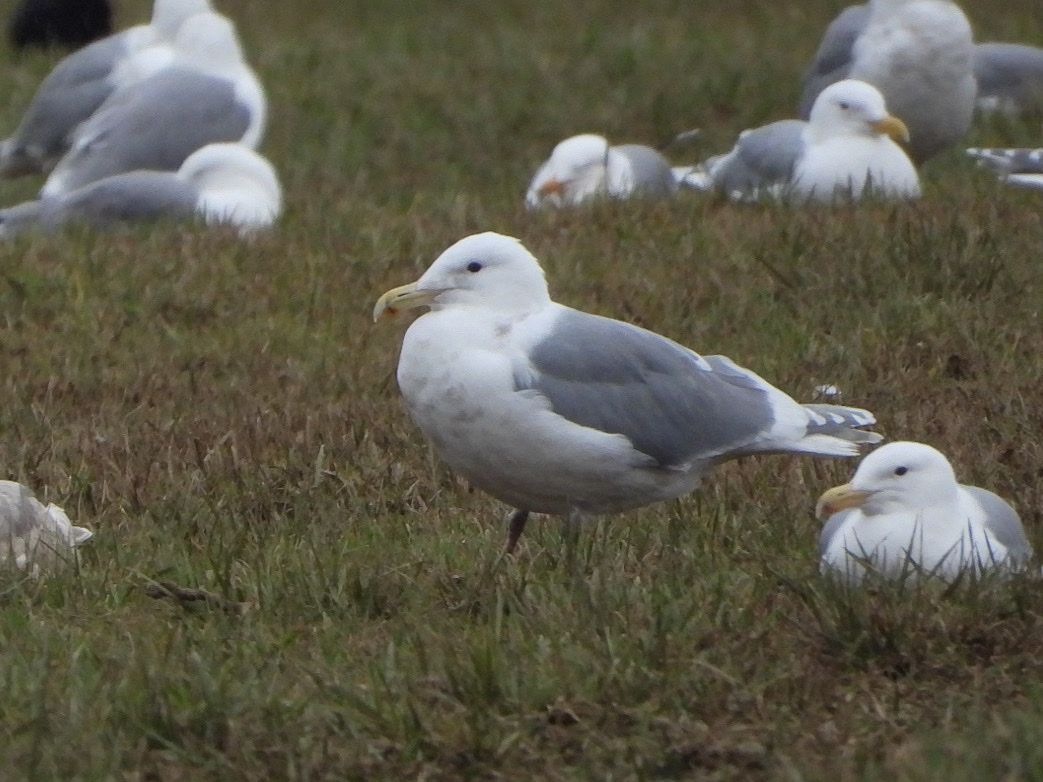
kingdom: Animalia
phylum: Chordata
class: Aves
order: Charadriiformes
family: Laridae
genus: Larus
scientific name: Larus glaucescens
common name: Glaucous-winged gull
